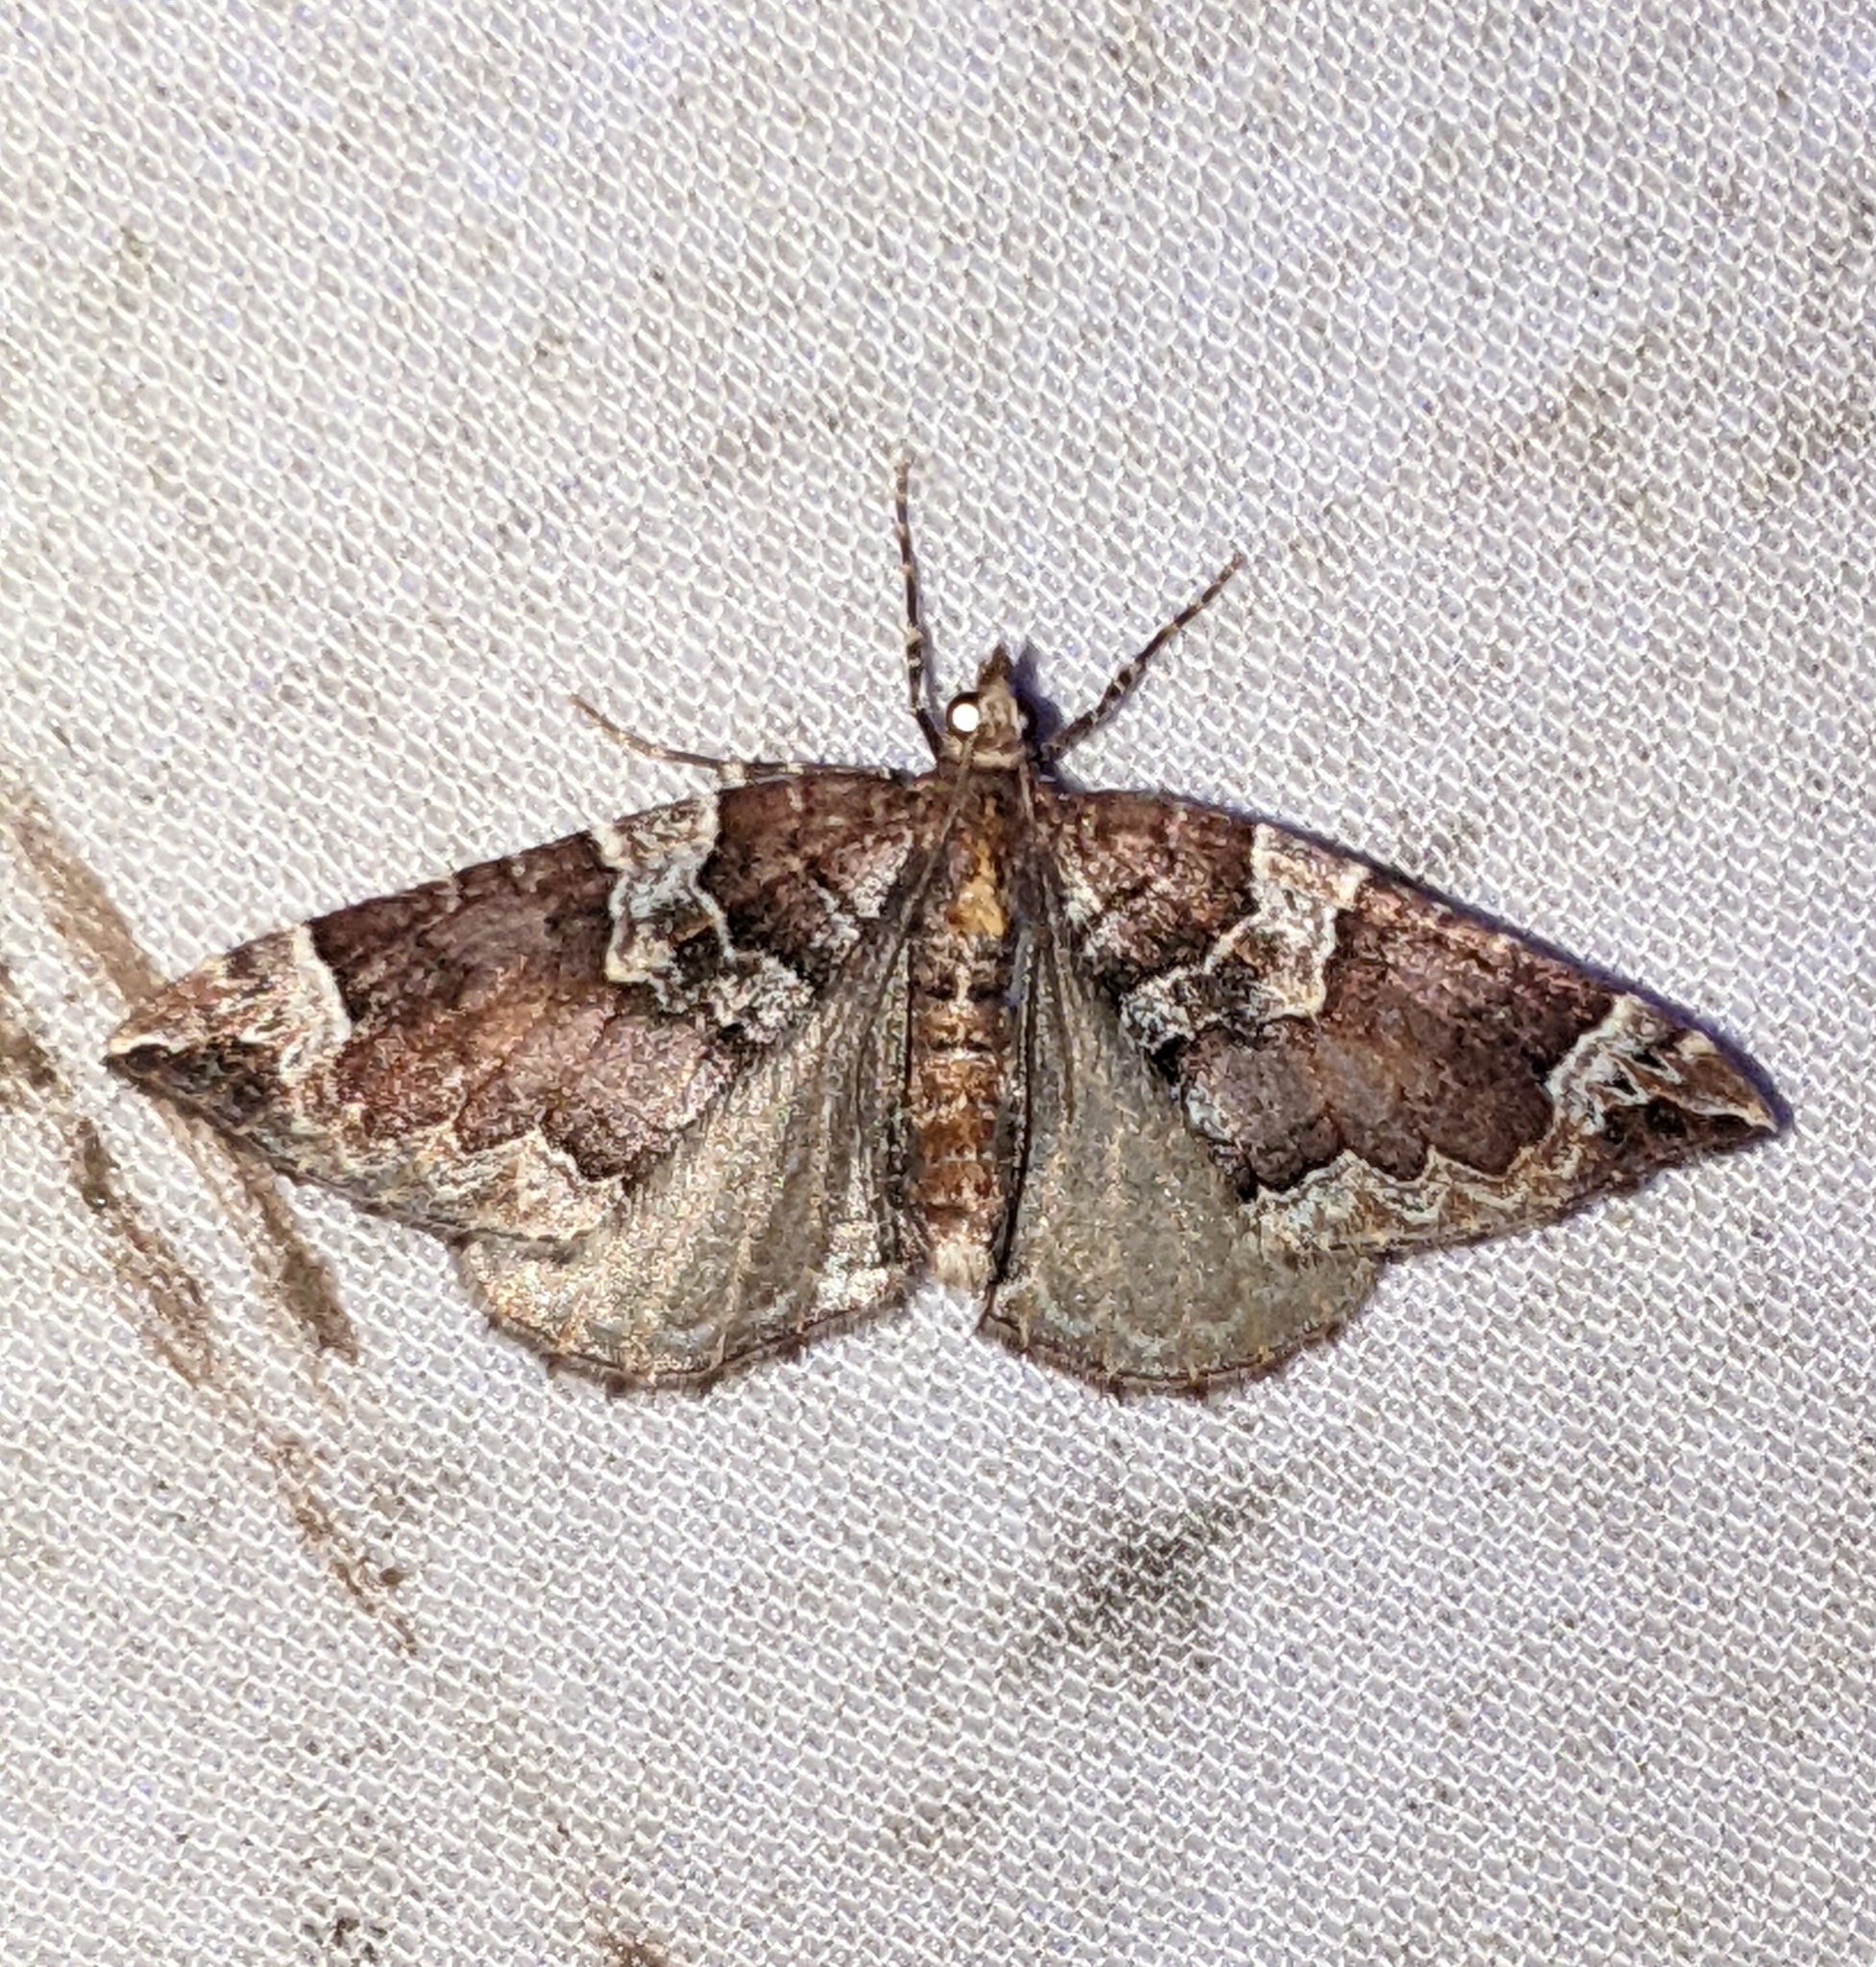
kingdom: Animalia
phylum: Arthropoda
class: Insecta
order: Lepidoptera
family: Geometridae
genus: Eulithis
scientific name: Eulithis xylina
